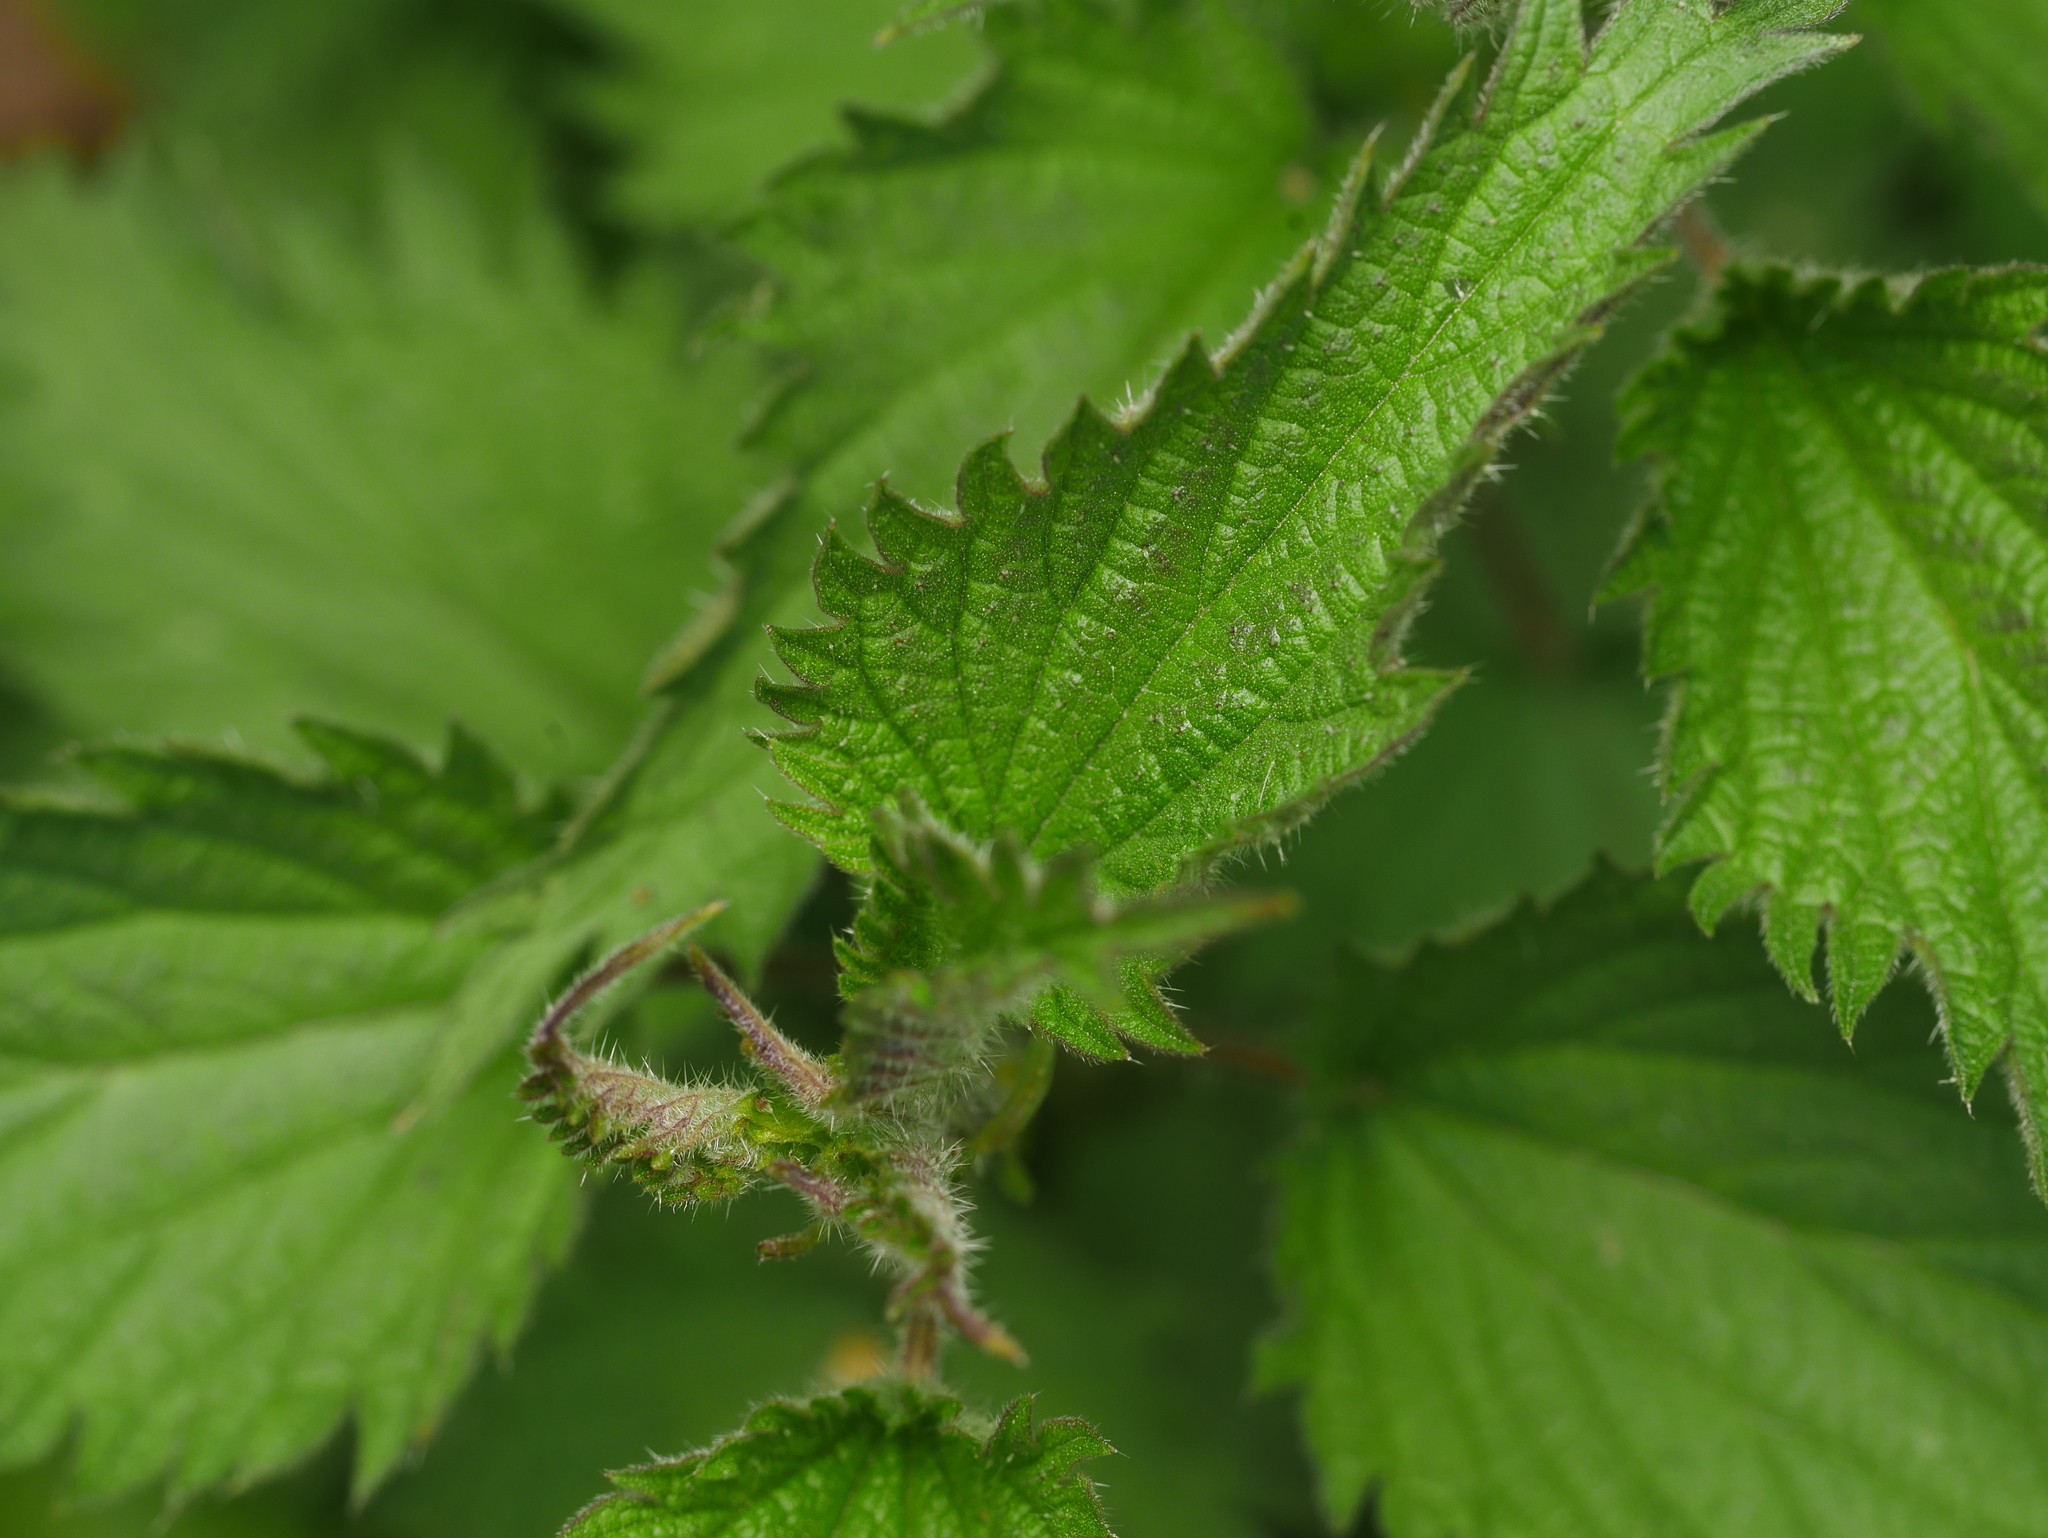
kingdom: Plantae
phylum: Tracheophyta
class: Magnoliopsida
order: Rosales
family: Urticaceae
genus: Urtica
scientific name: Urtica dioica
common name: Common nettle
